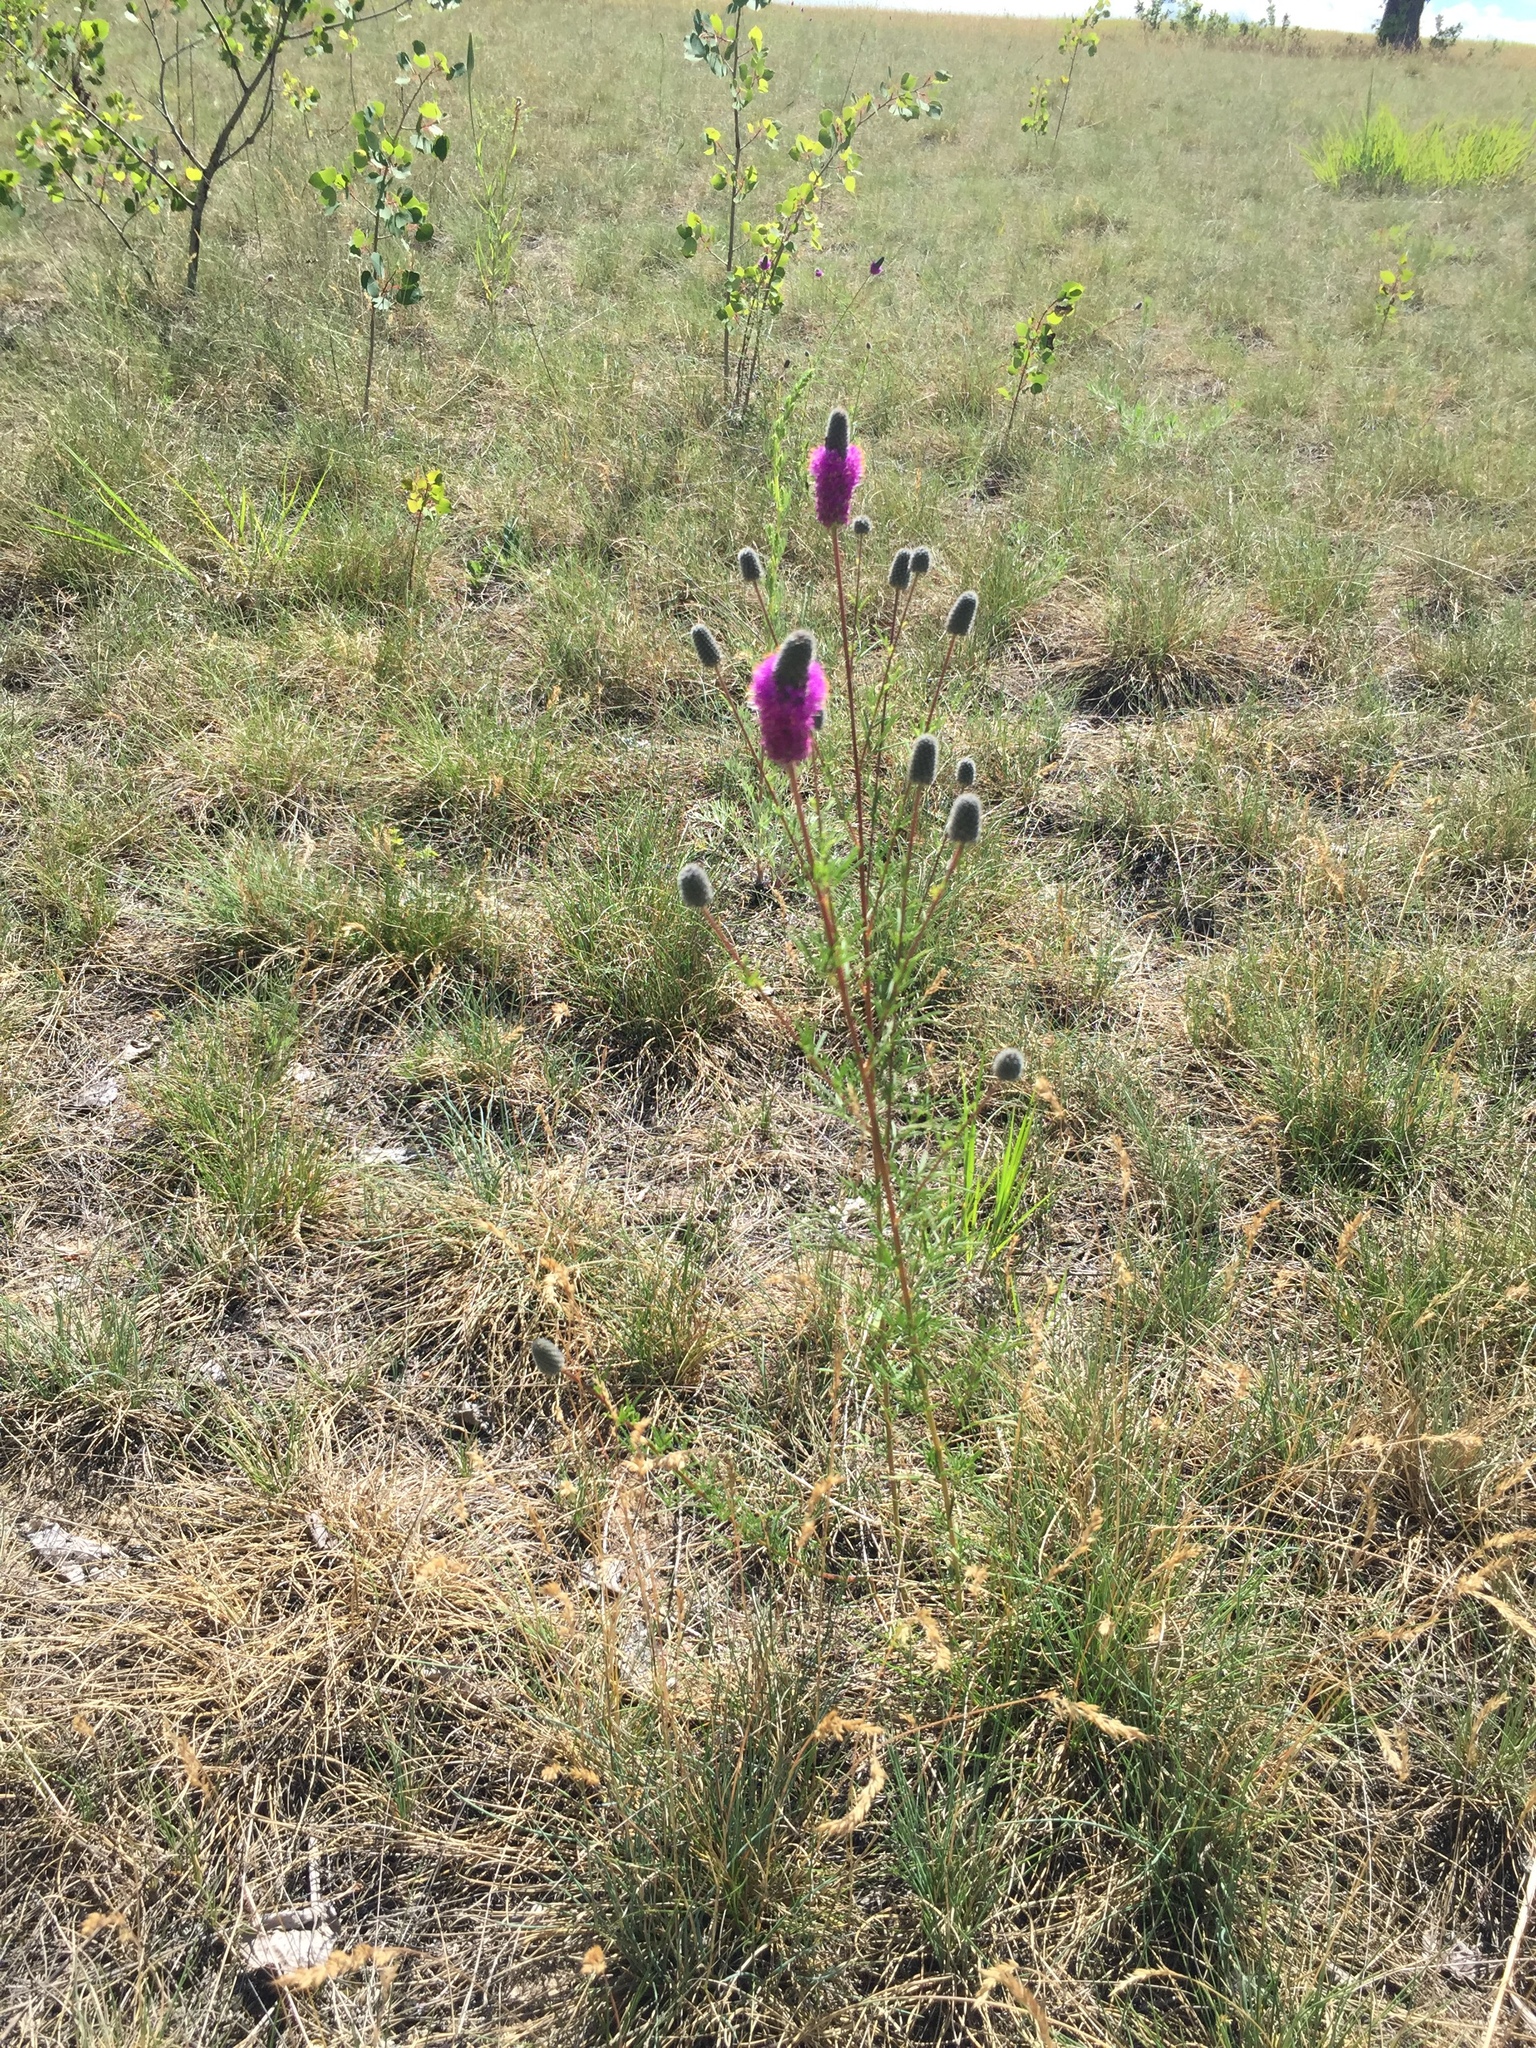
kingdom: Plantae
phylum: Tracheophyta
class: Magnoliopsida
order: Fabales
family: Fabaceae
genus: Dalea
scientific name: Dalea purpurea
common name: Purple prairie-clover
